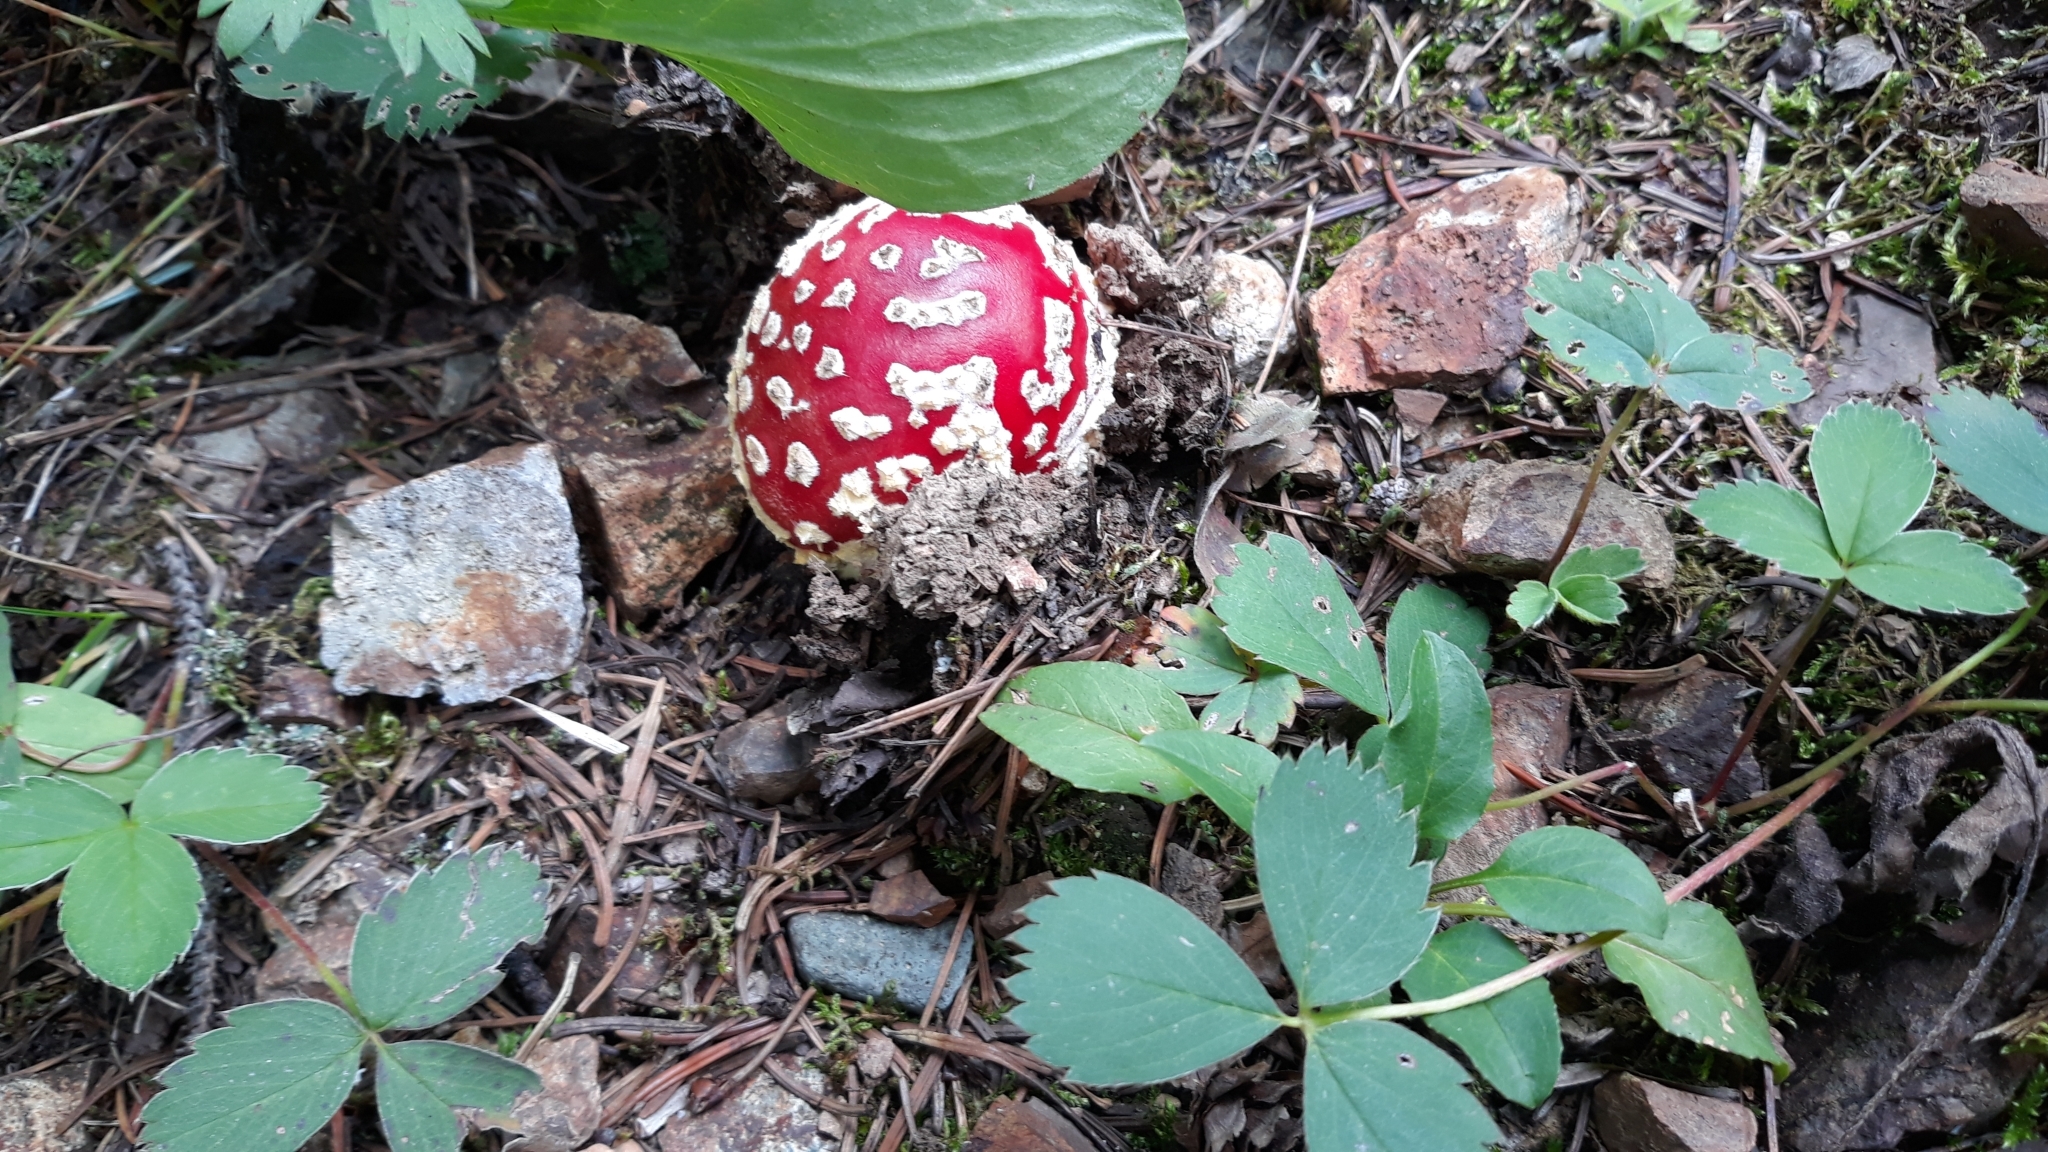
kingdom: Fungi
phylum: Basidiomycota
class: Agaricomycetes
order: Agaricales
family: Amanitaceae
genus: Amanita
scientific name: Amanita muscaria
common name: Fly agaric
